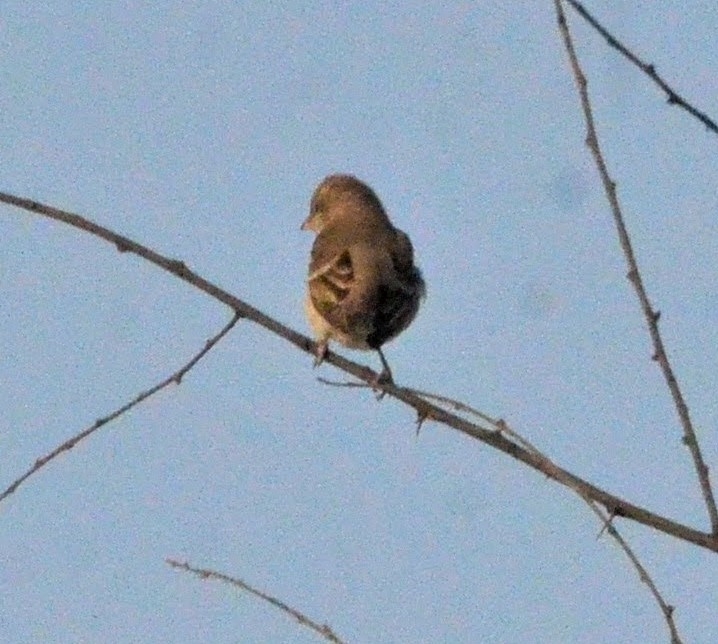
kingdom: Animalia
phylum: Chordata
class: Aves
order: Passeriformes
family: Passeridae
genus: Gymnoris
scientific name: Gymnoris xanthocollis
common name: Yellow-throated sparrow
